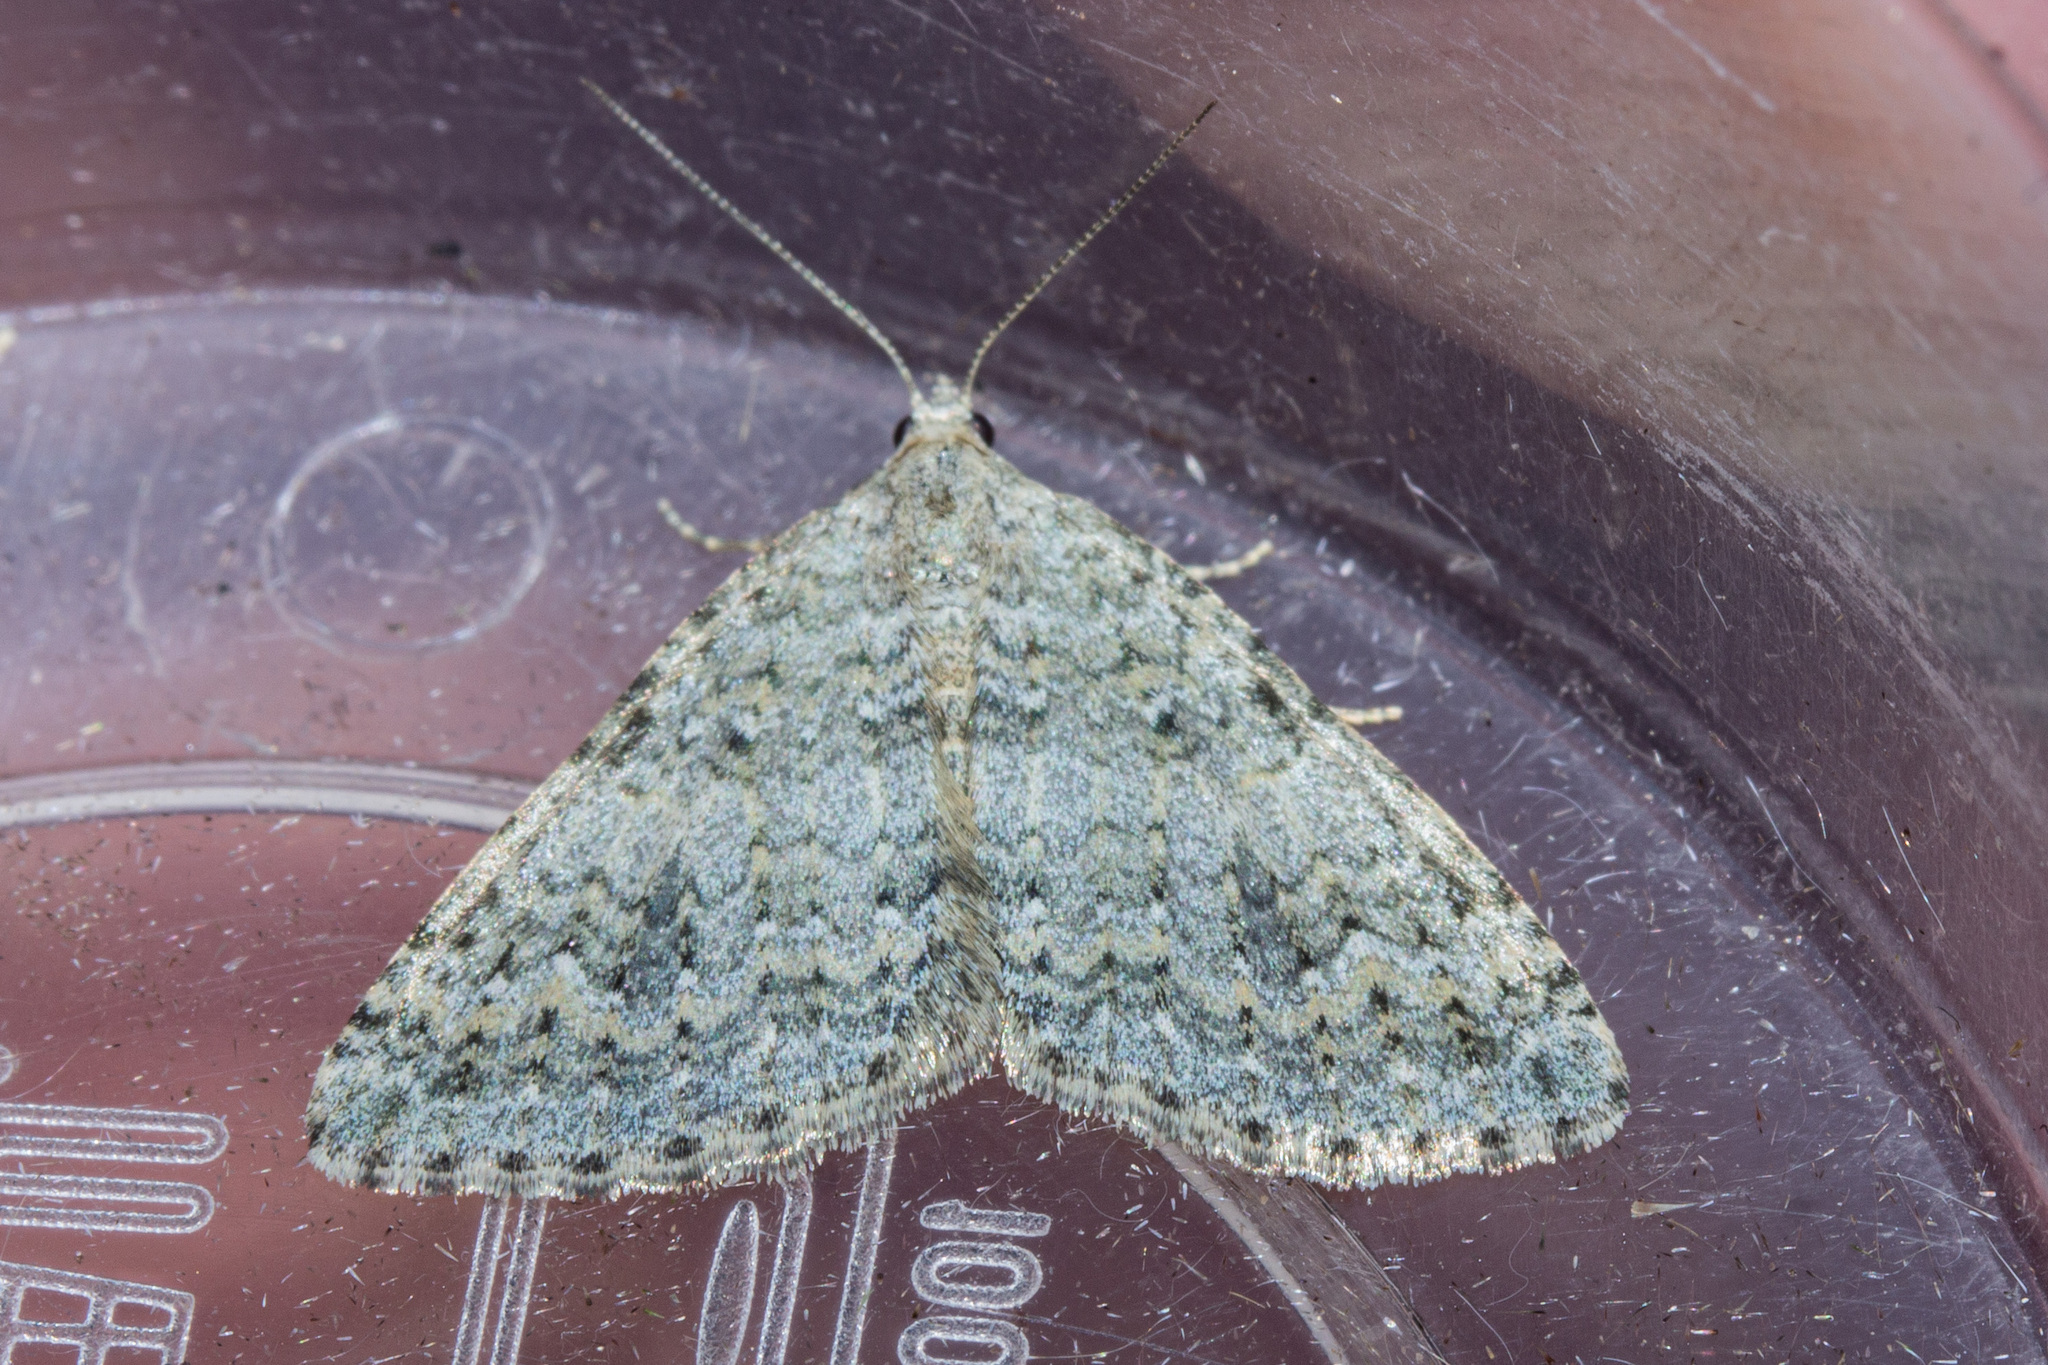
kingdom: Animalia
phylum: Arthropoda
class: Insecta
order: Lepidoptera
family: Geometridae
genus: Helastia
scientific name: Helastia corcularia
